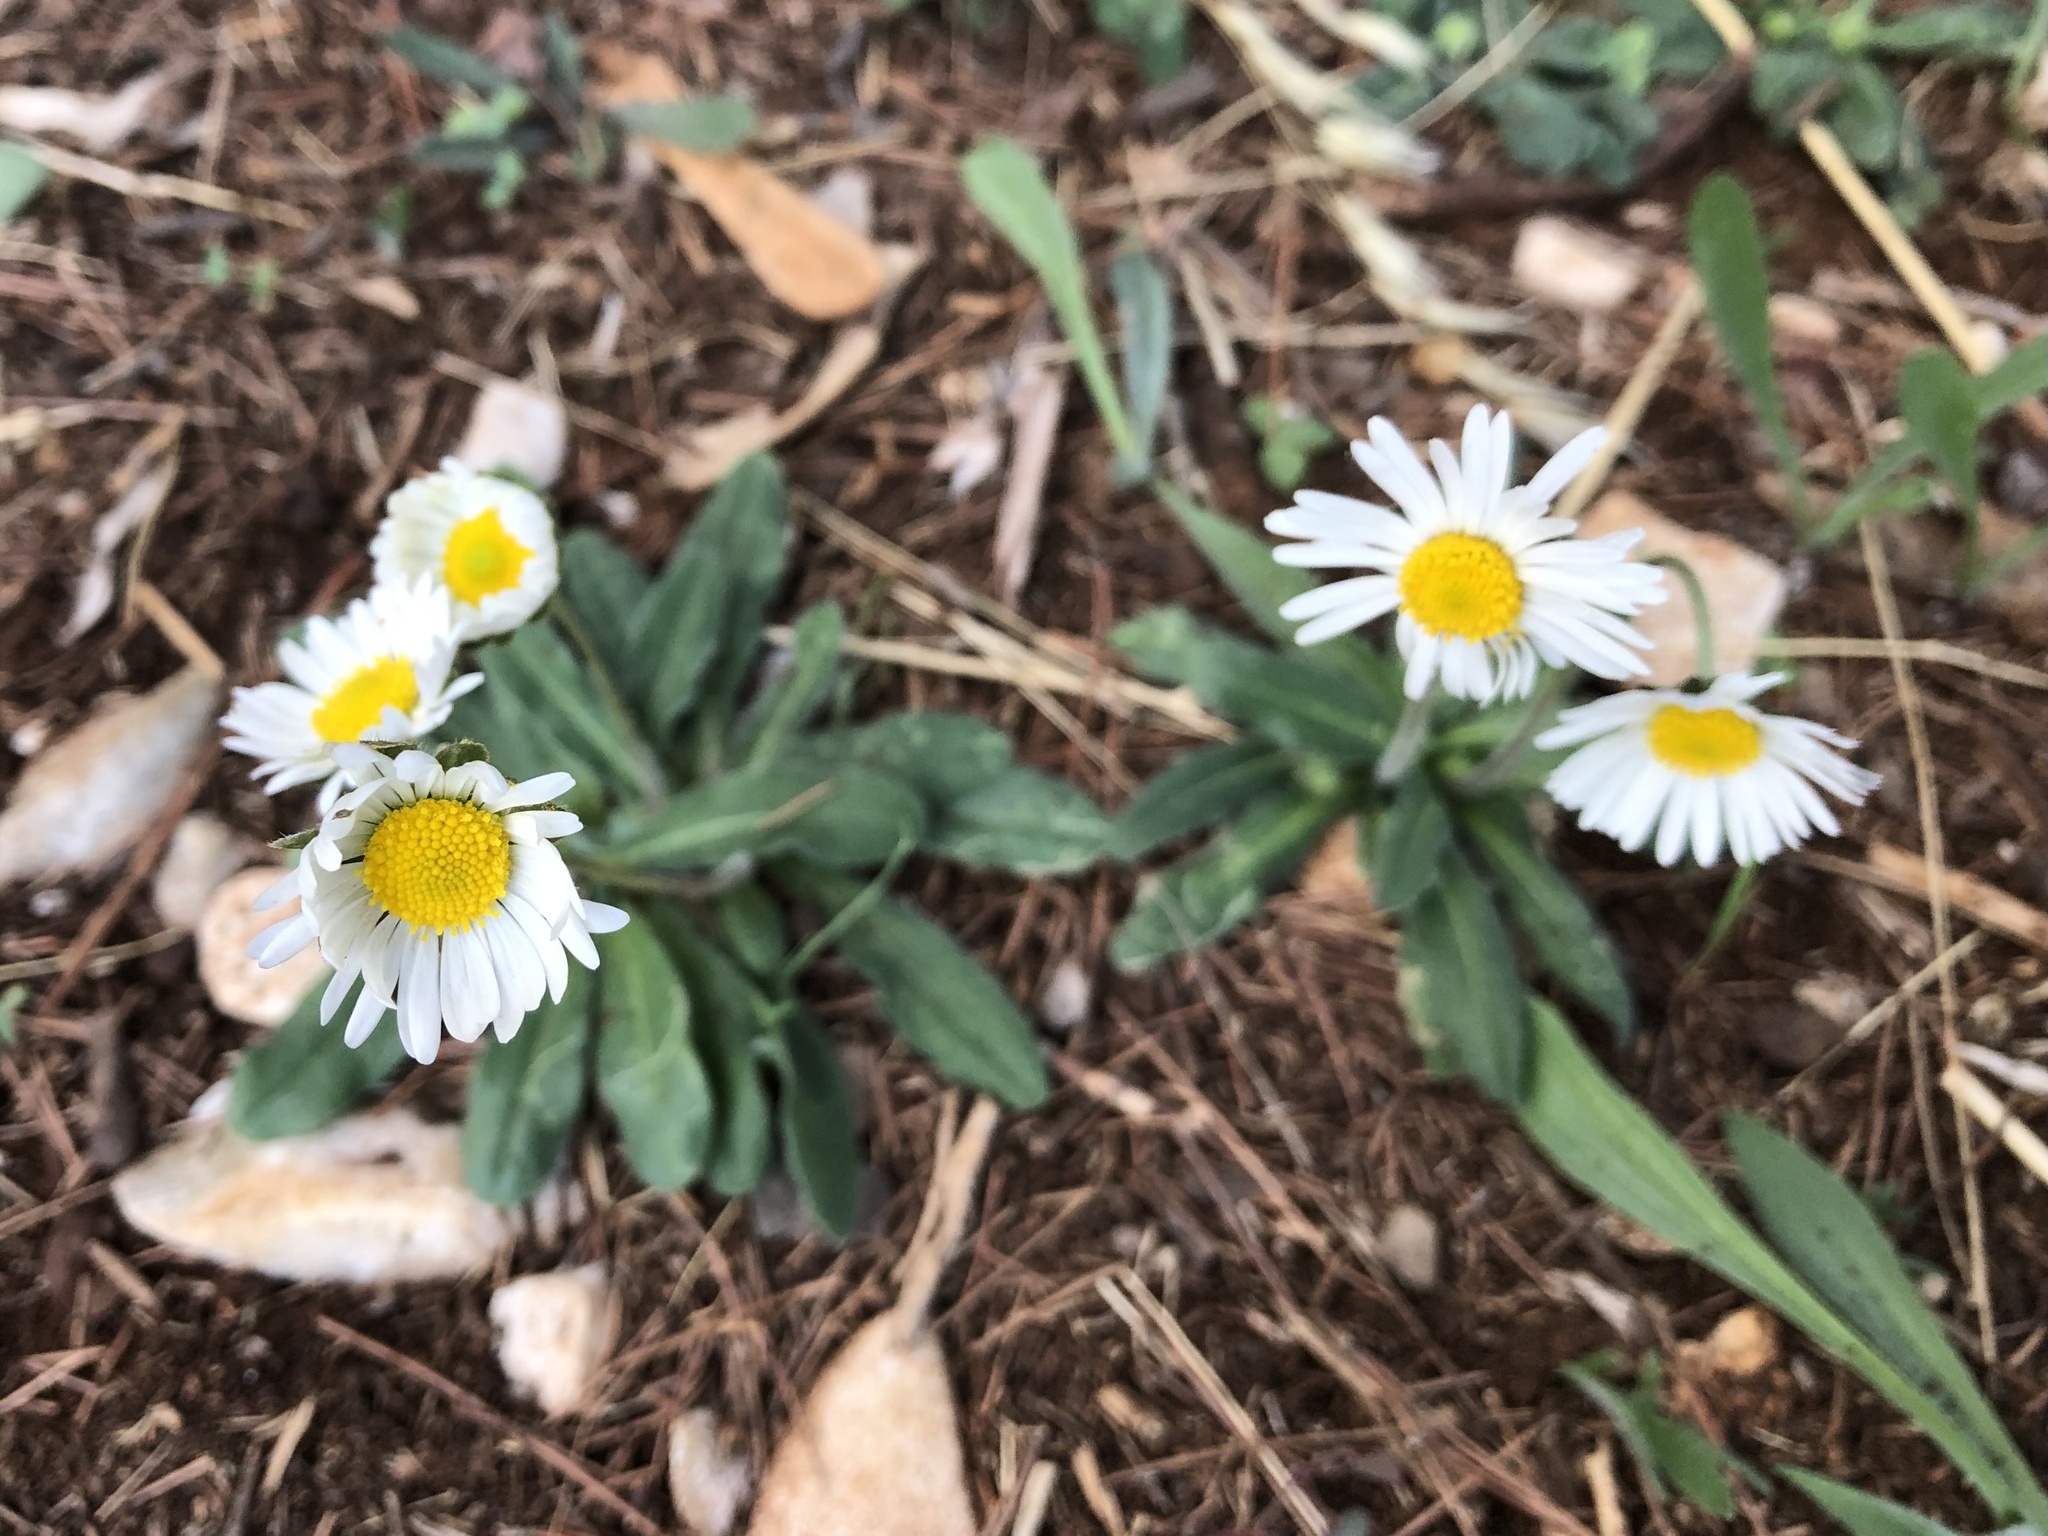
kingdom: Plantae
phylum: Tracheophyta
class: Magnoliopsida
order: Asterales
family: Asteraceae
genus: Bellis
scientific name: Bellis perennis
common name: Lawndaisy
